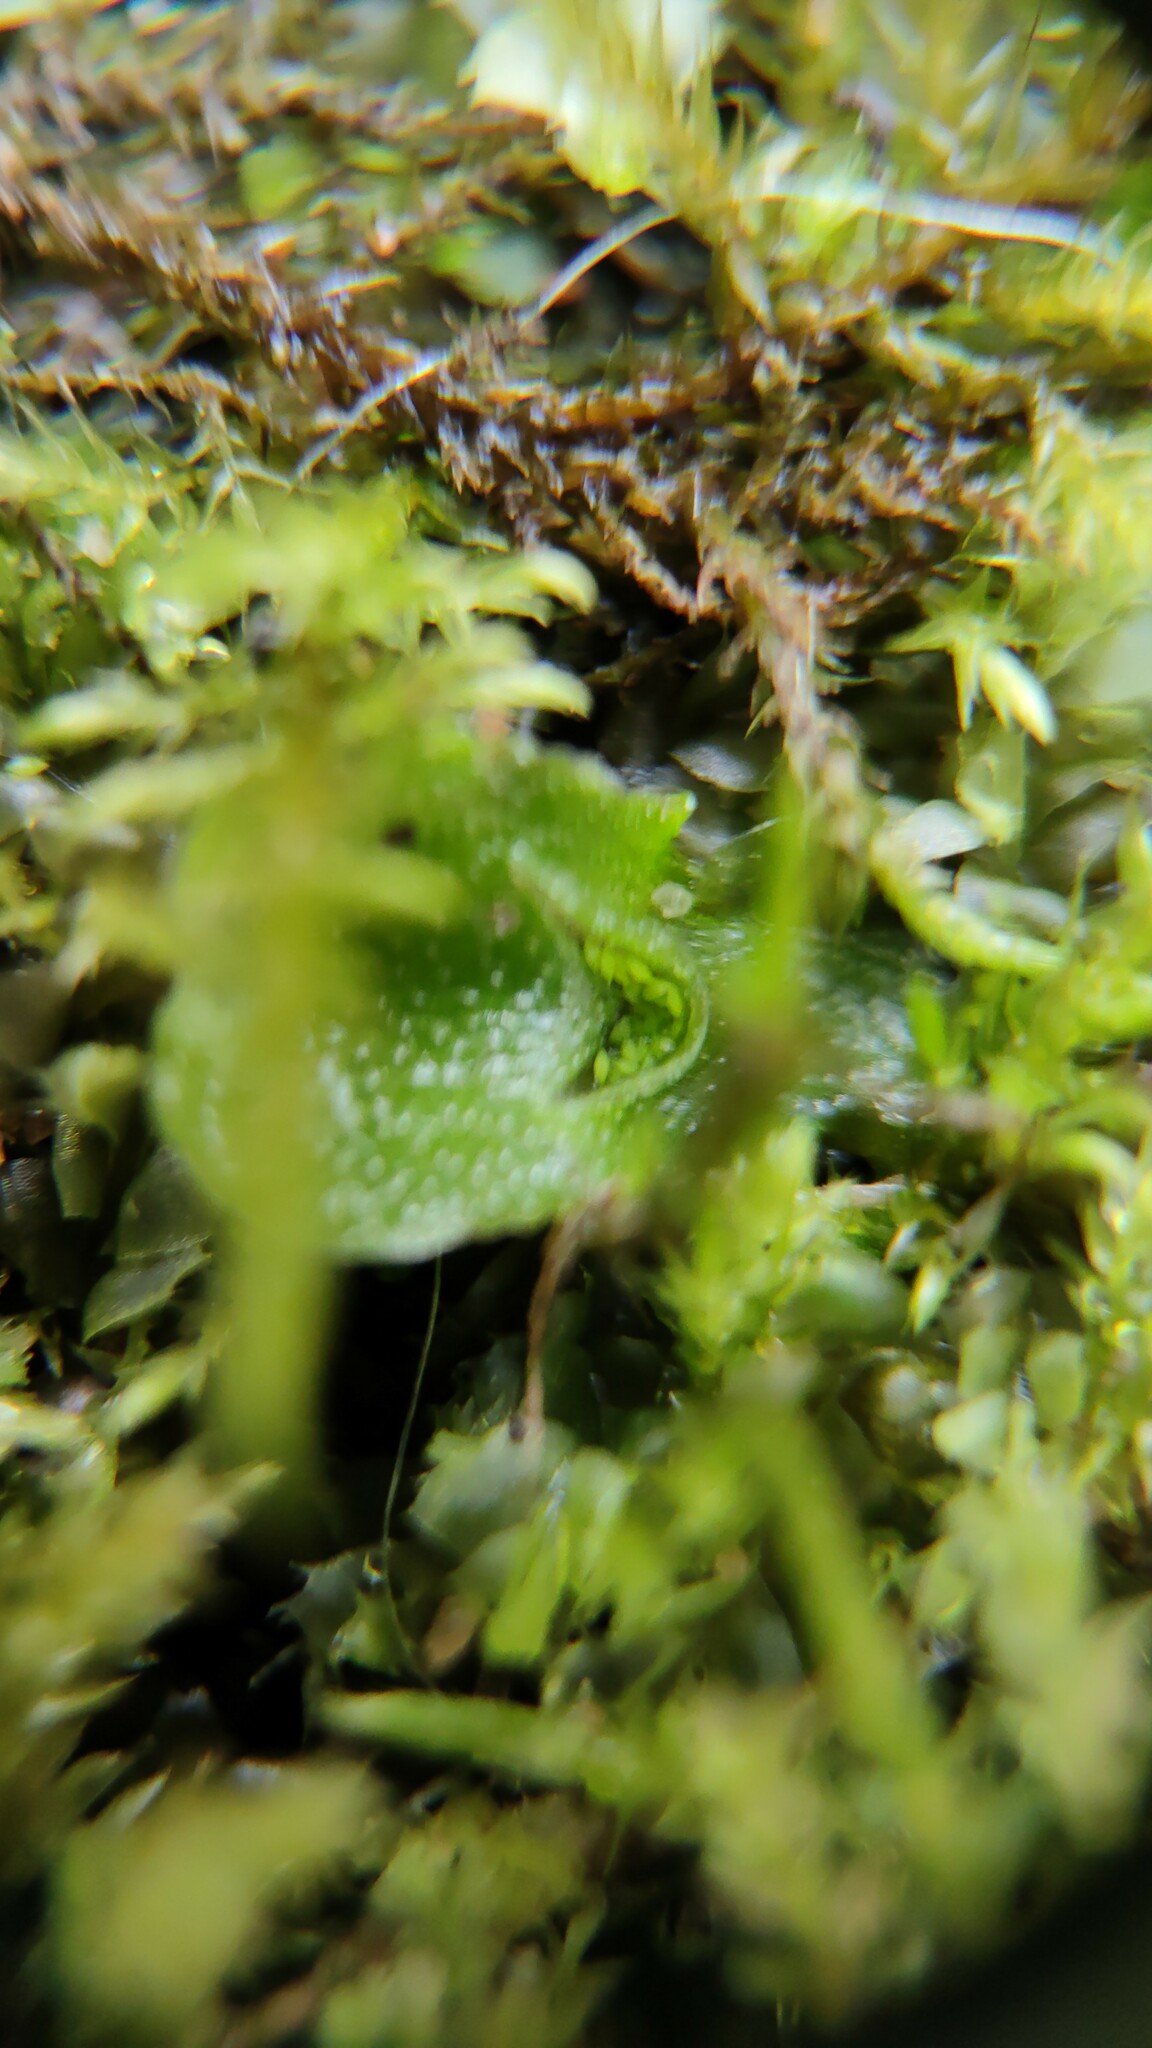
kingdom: Plantae
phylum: Marchantiophyta
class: Marchantiopsida
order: Lunulariales
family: Lunulariaceae
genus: Lunularia
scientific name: Lunularia cruciata
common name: Crescent-cup liverwort
